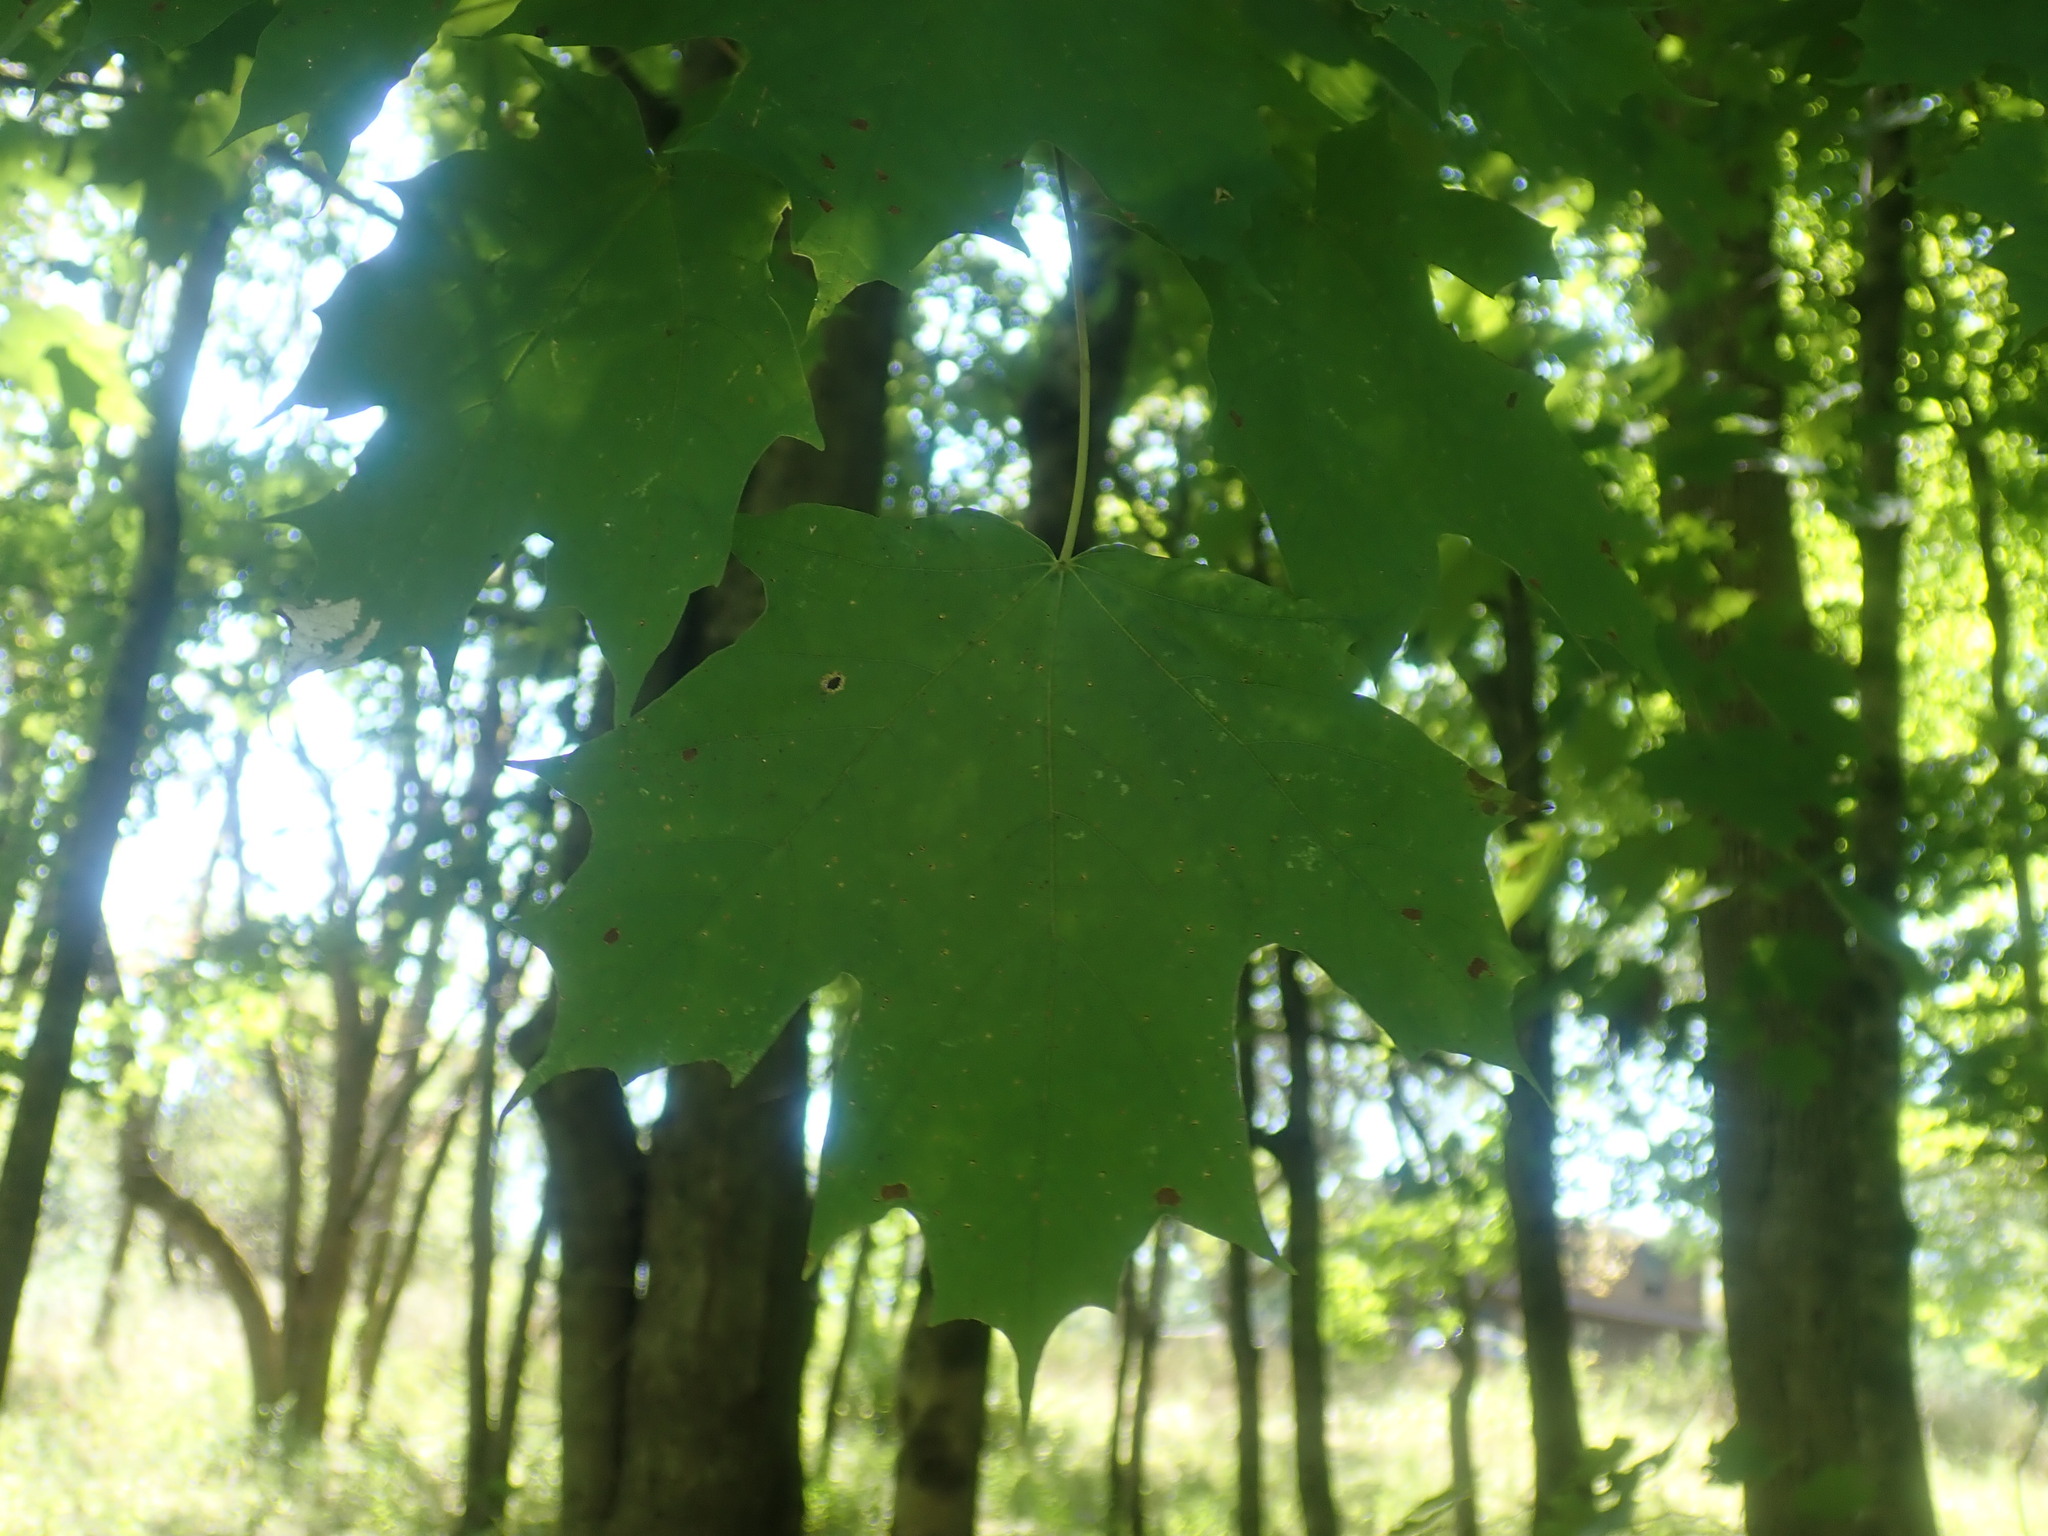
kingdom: Plantae
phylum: Tracheophyta
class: Magnoliopsida
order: Sapindales
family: Sapindaceae
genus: Acer
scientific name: Acer saccharum
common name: Sugar maple
